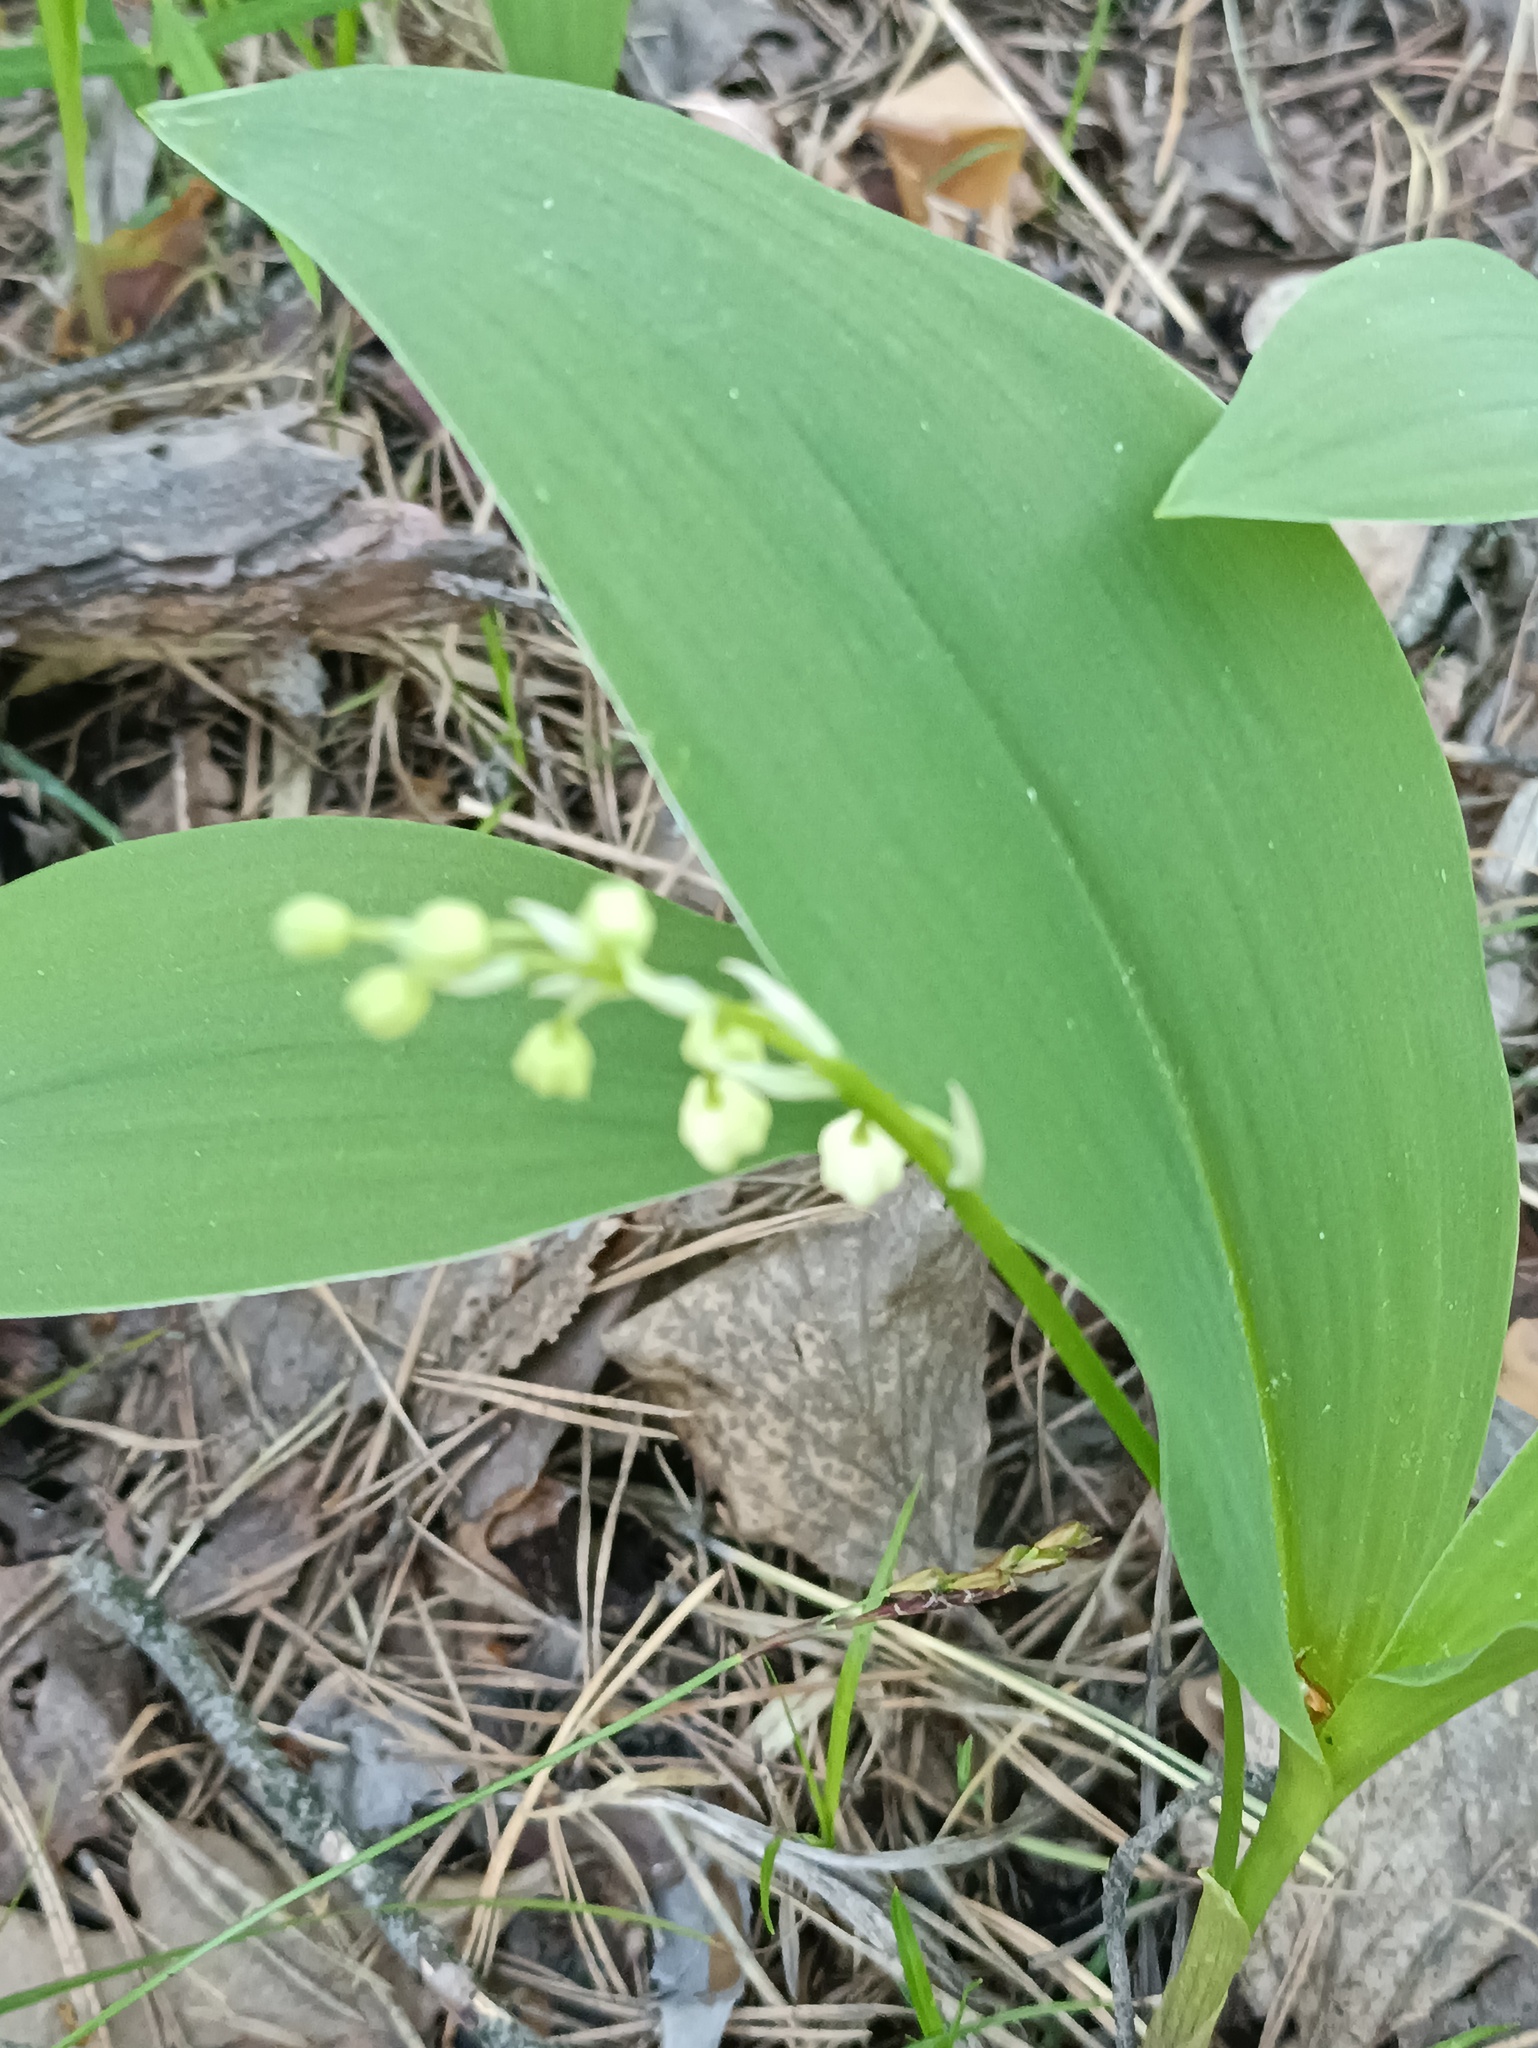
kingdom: Plantae
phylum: Tracheophyta
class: Liliopsida
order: Asparagales
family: Asparagaceae
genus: Convallaria
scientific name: Convallaria majalis
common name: Lily-of-the-valley
